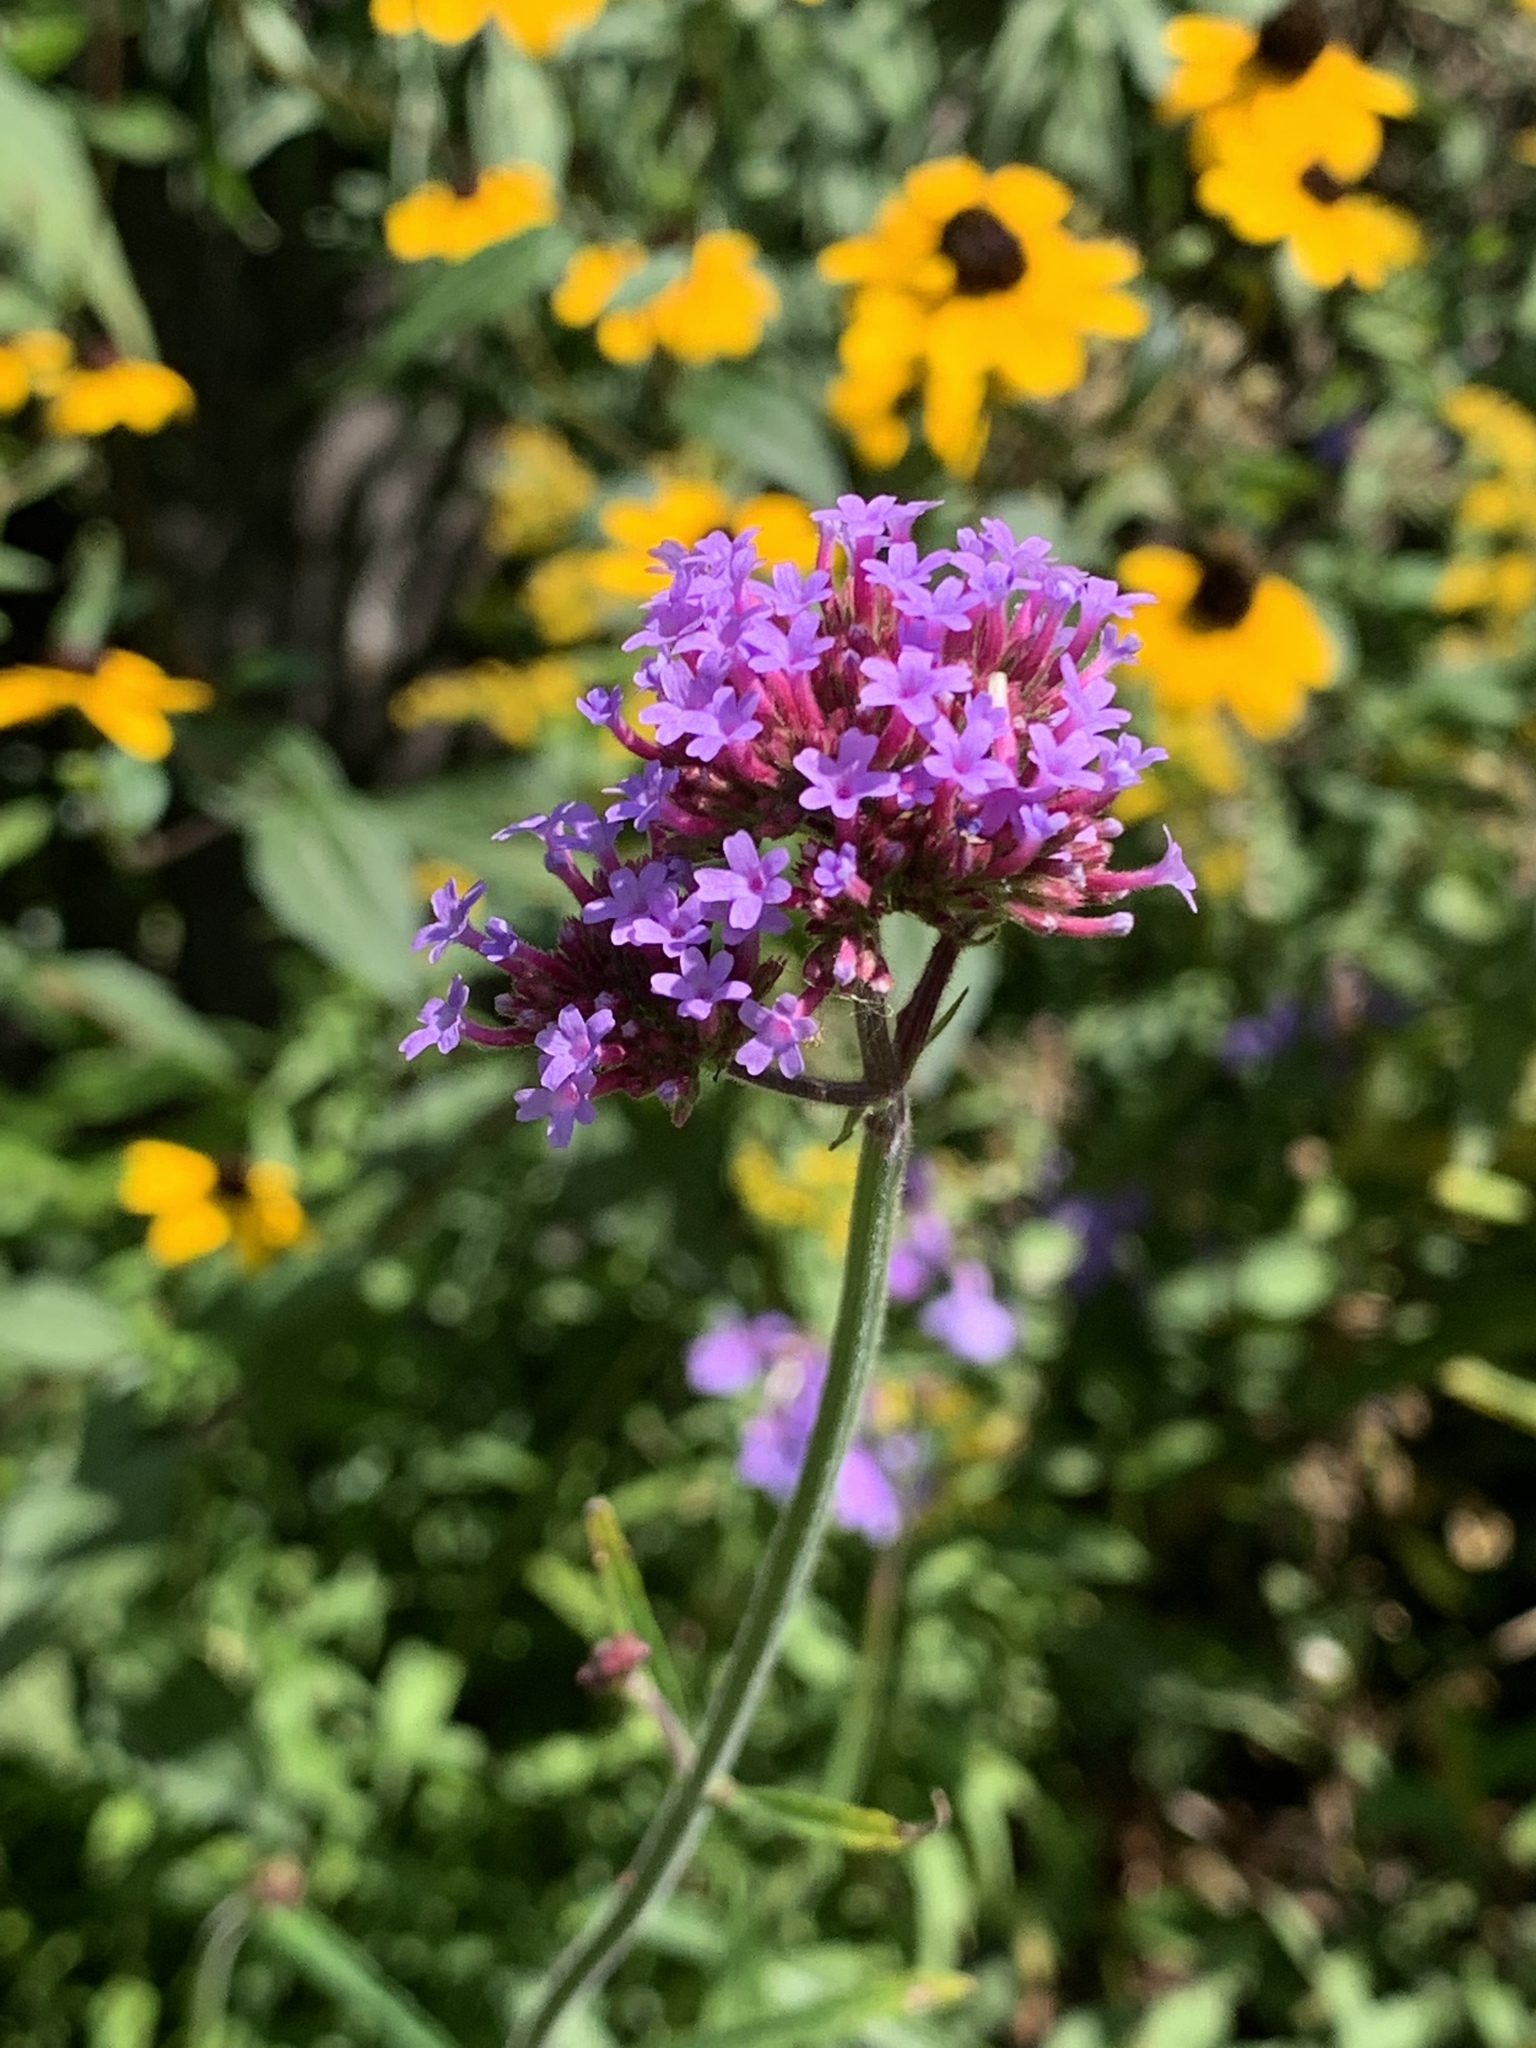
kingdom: Plantae
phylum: Tracheophyta
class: Magnoliopsida
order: Lamiales
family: Verbenaceae
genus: Verbena
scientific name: Verbena bonariensis
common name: Purpletop vervain
